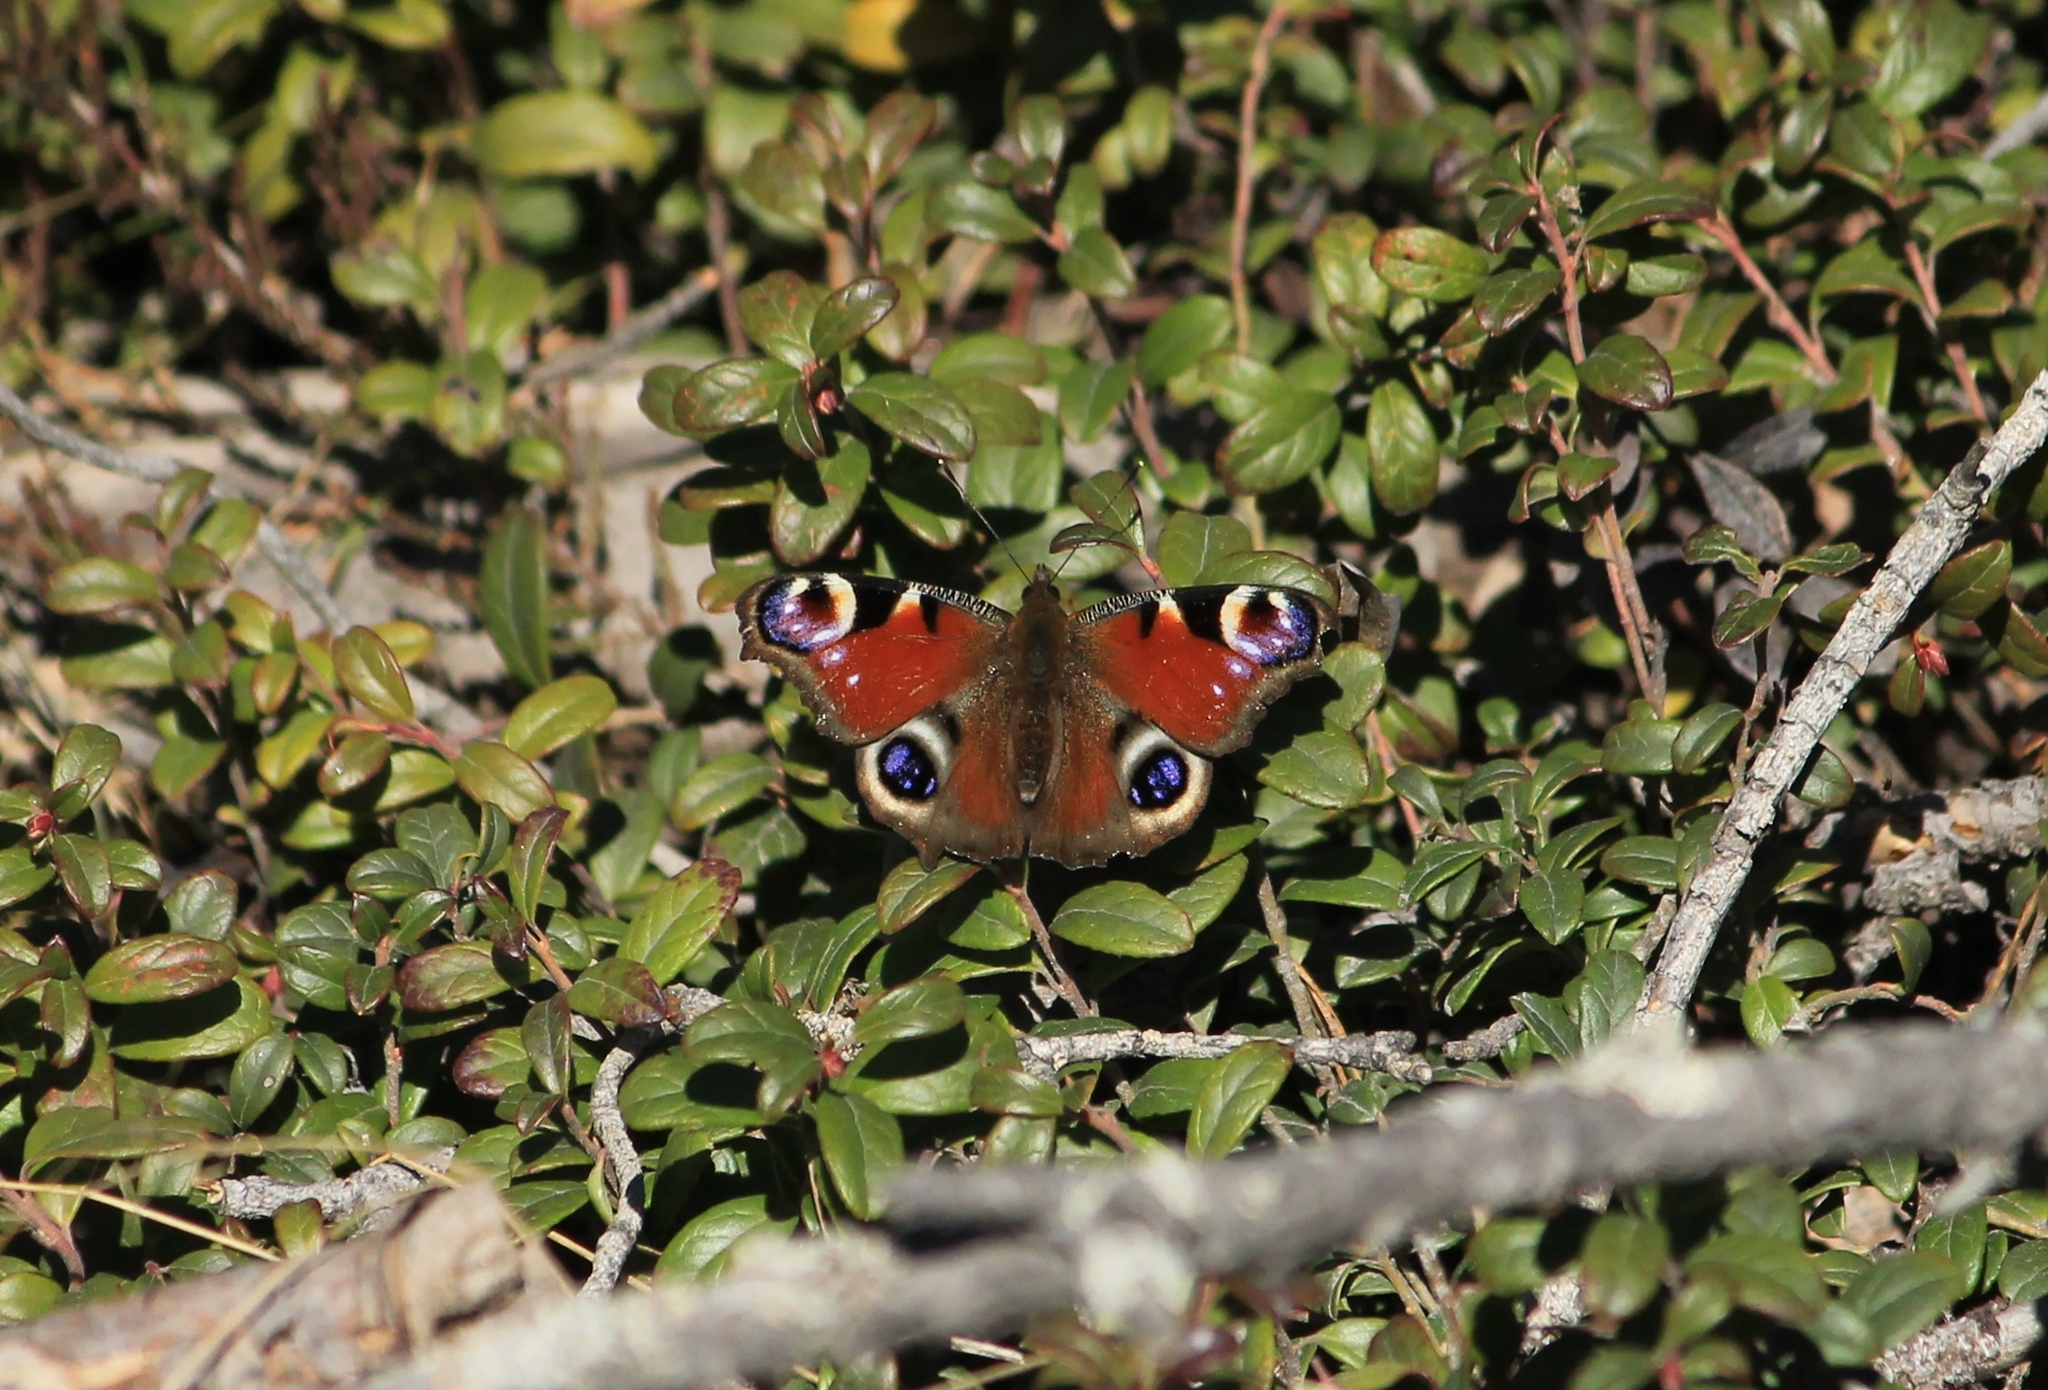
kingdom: Animalia
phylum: Arthropoda
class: Insecta
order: Lepidoptera
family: Nymphalidae
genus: Aglais
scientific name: Aglais io
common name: Peacock
